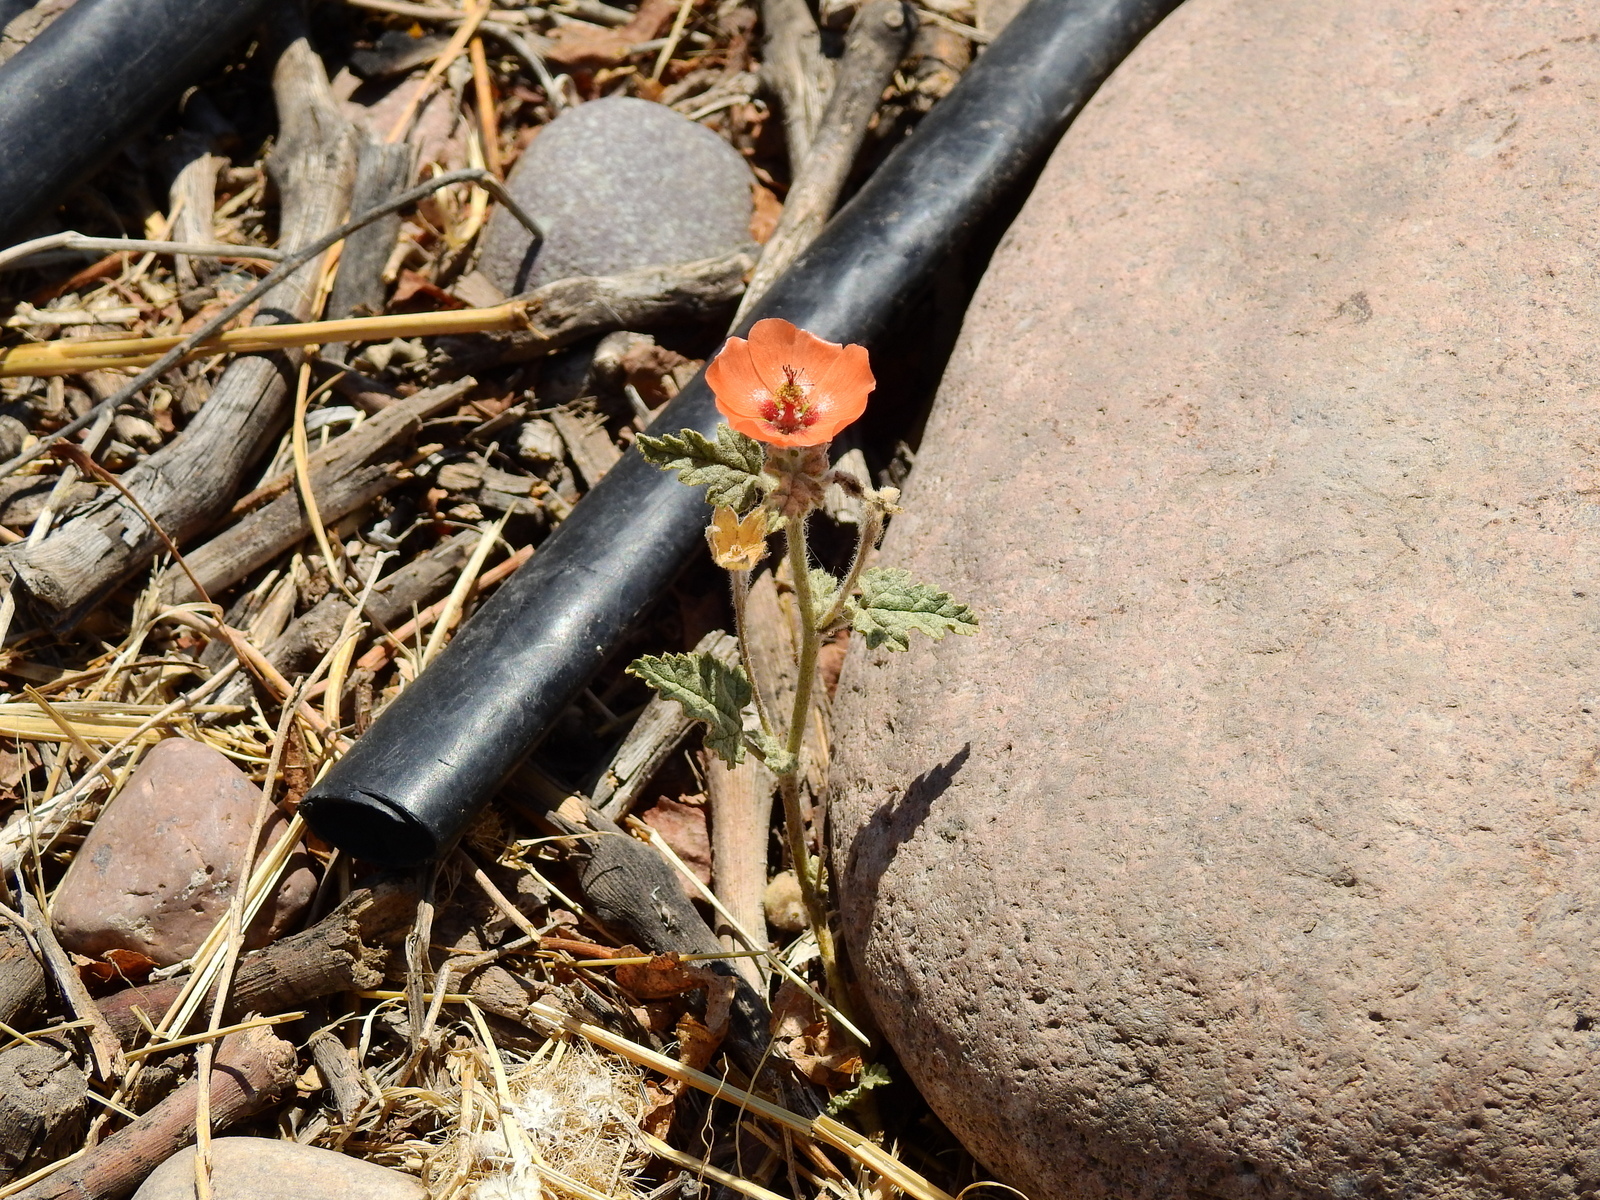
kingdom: Plantae
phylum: Tracheophyta
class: Magnoliopsida
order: Malvales
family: Malvaceae
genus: Sphaeralcea
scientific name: Sphaeralcea miniata
